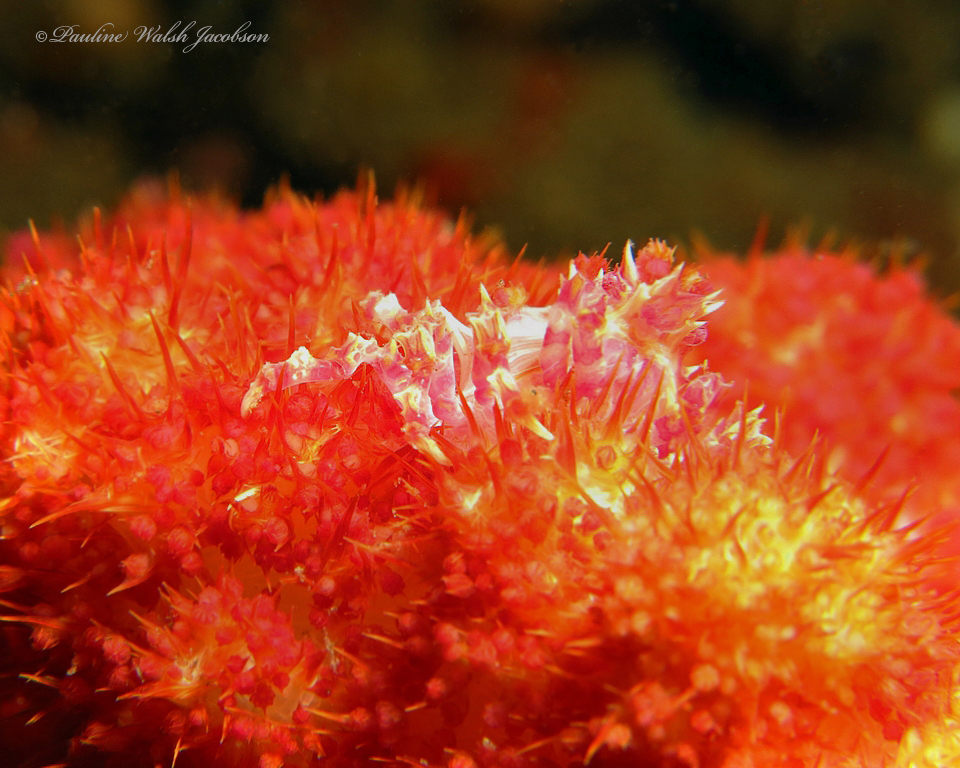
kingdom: Animalia
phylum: Arthropoda
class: Malacostraca
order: Decapoda
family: Epialtidae
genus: Hoplophrys
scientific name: Hoplophrys oatesii
